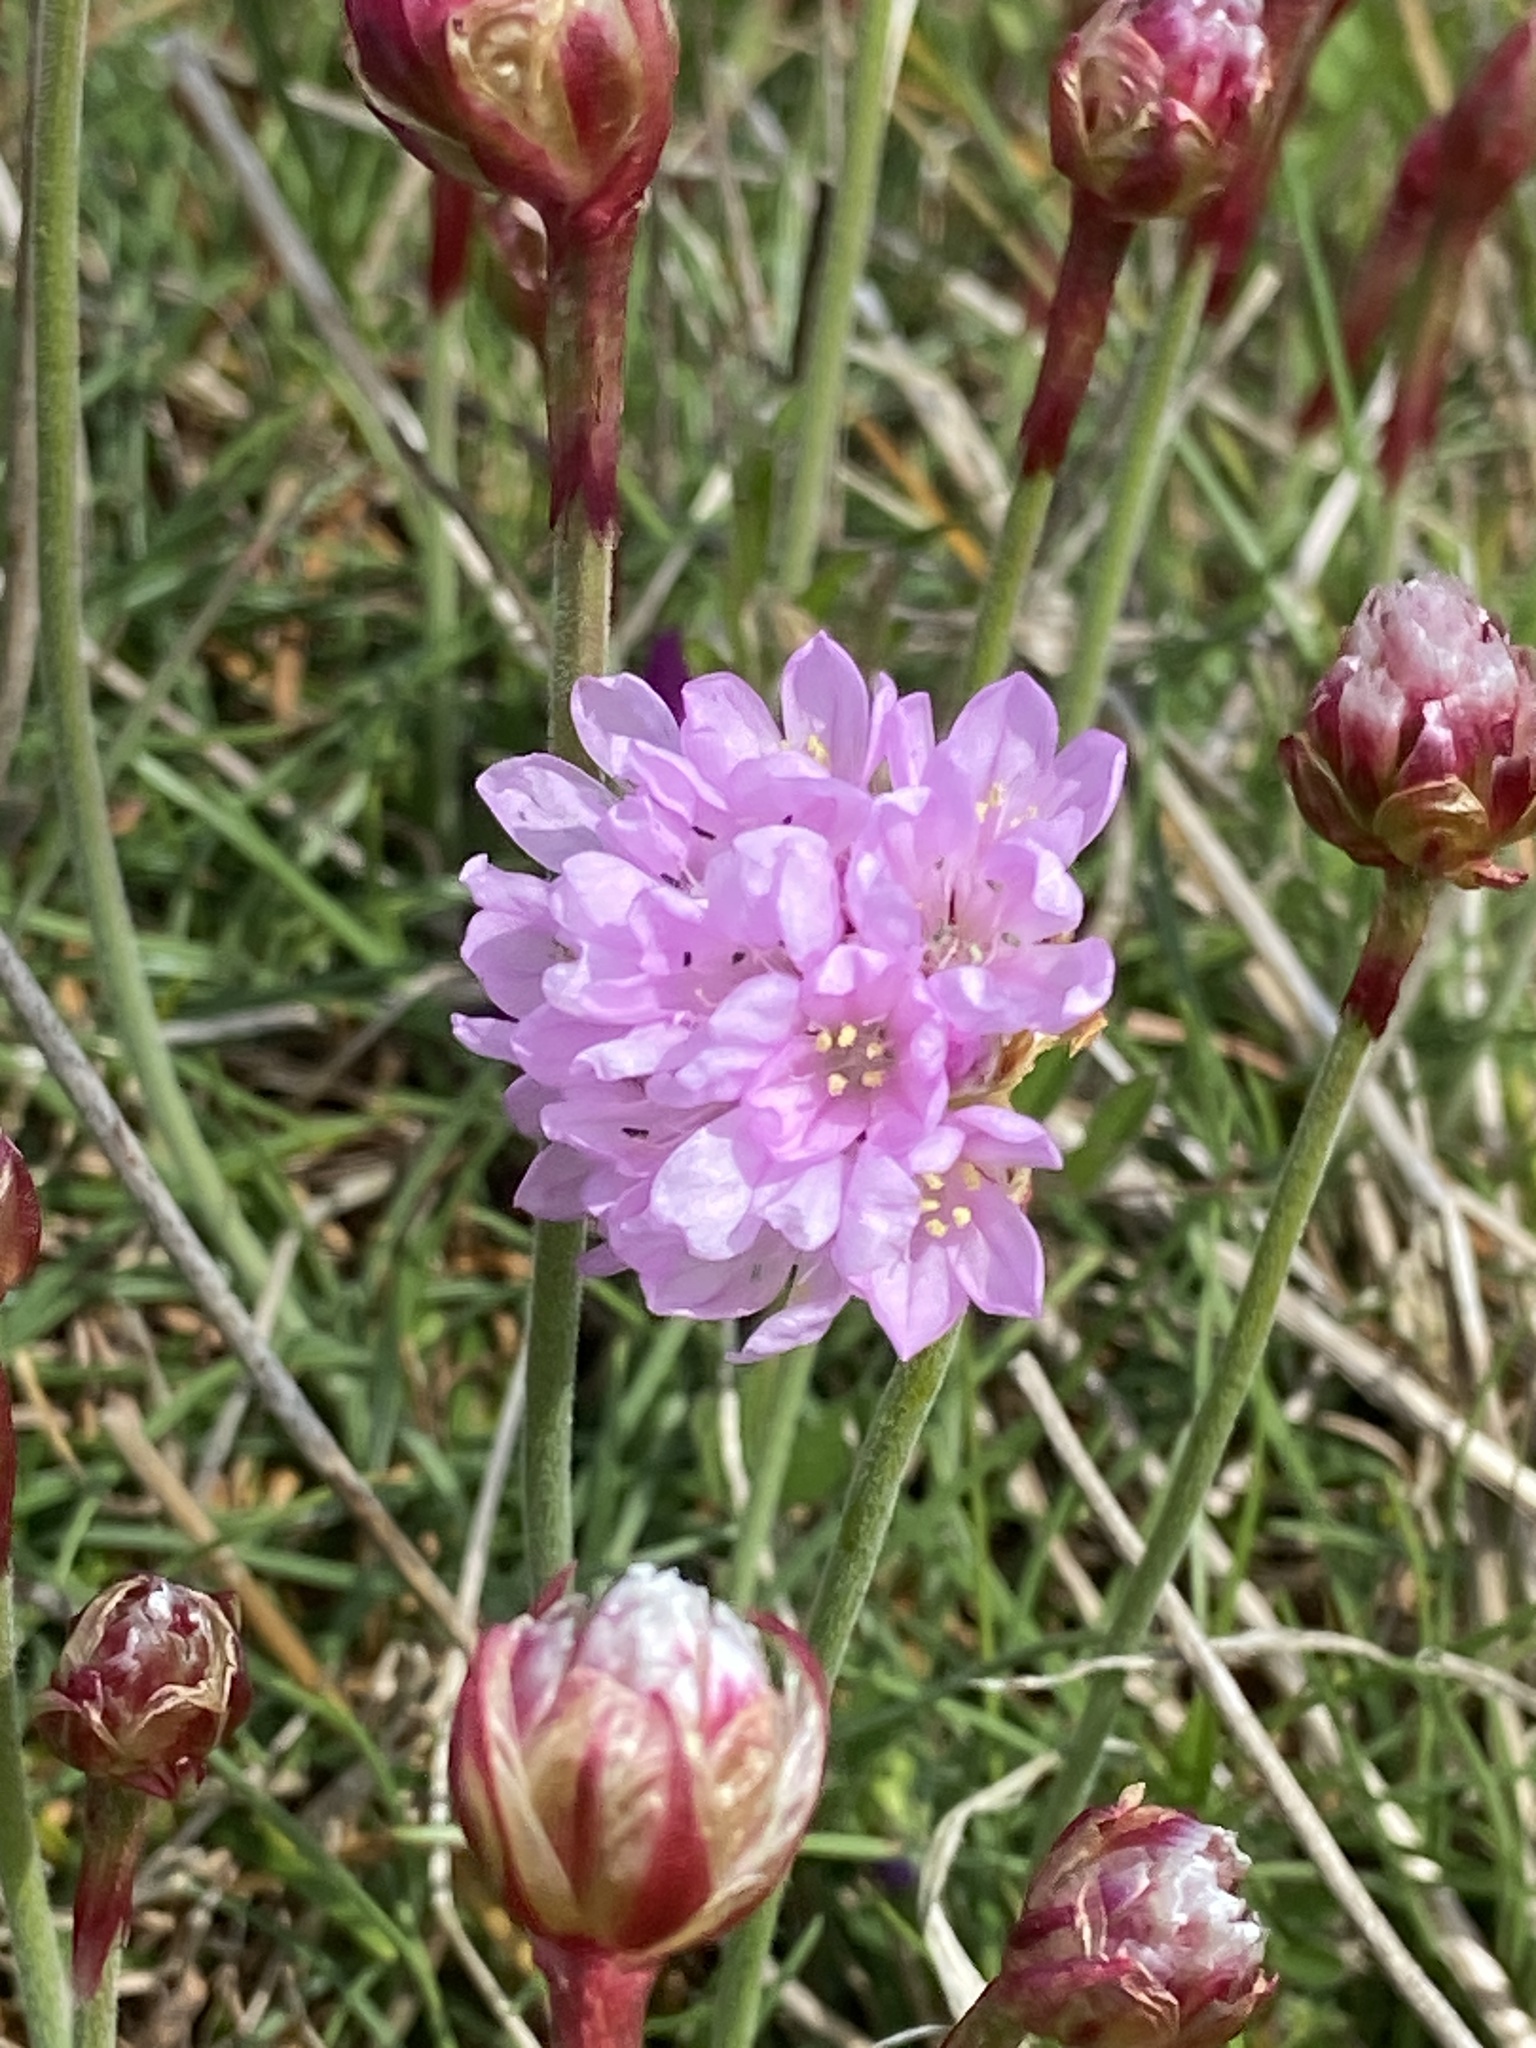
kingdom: Plantae
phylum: Tracheophyta
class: Magnoliopsida
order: Caryophyllales
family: Plumbaginaceae
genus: Armeria
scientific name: Armeria maritima
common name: Thrift
